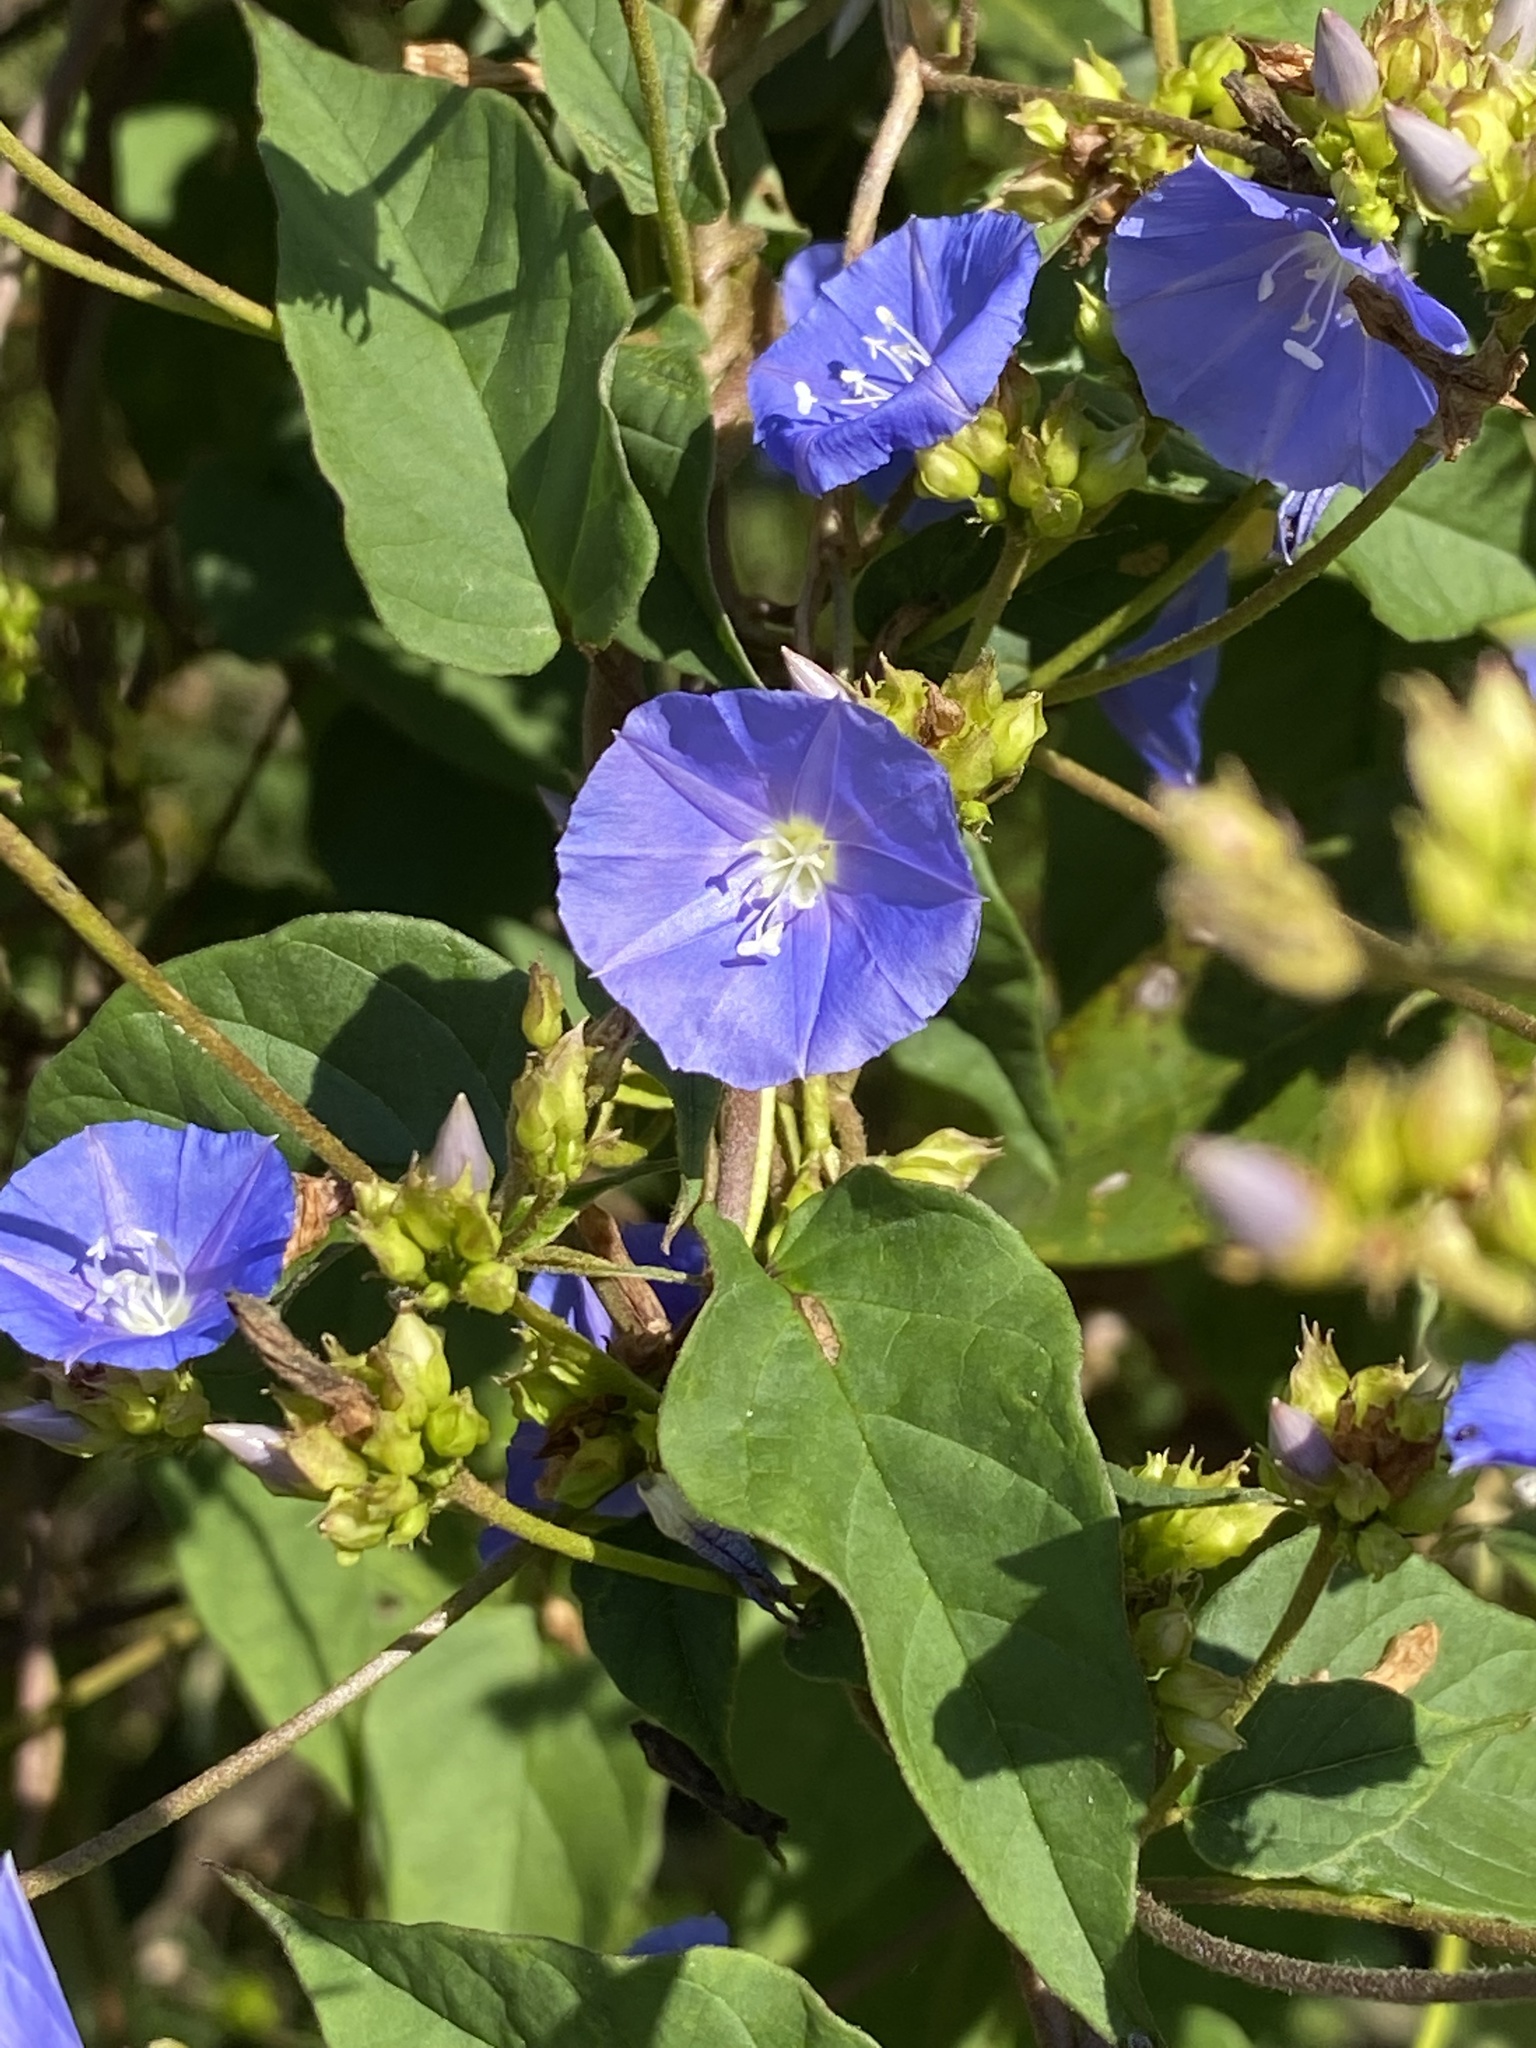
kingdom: Plantae
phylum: Tracheophyta
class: Magnoliopsida
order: Solanales
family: Convolvulaceae
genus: Jacquemontia
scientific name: Jacquemontia pentanthos
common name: Skyblue clustervine
